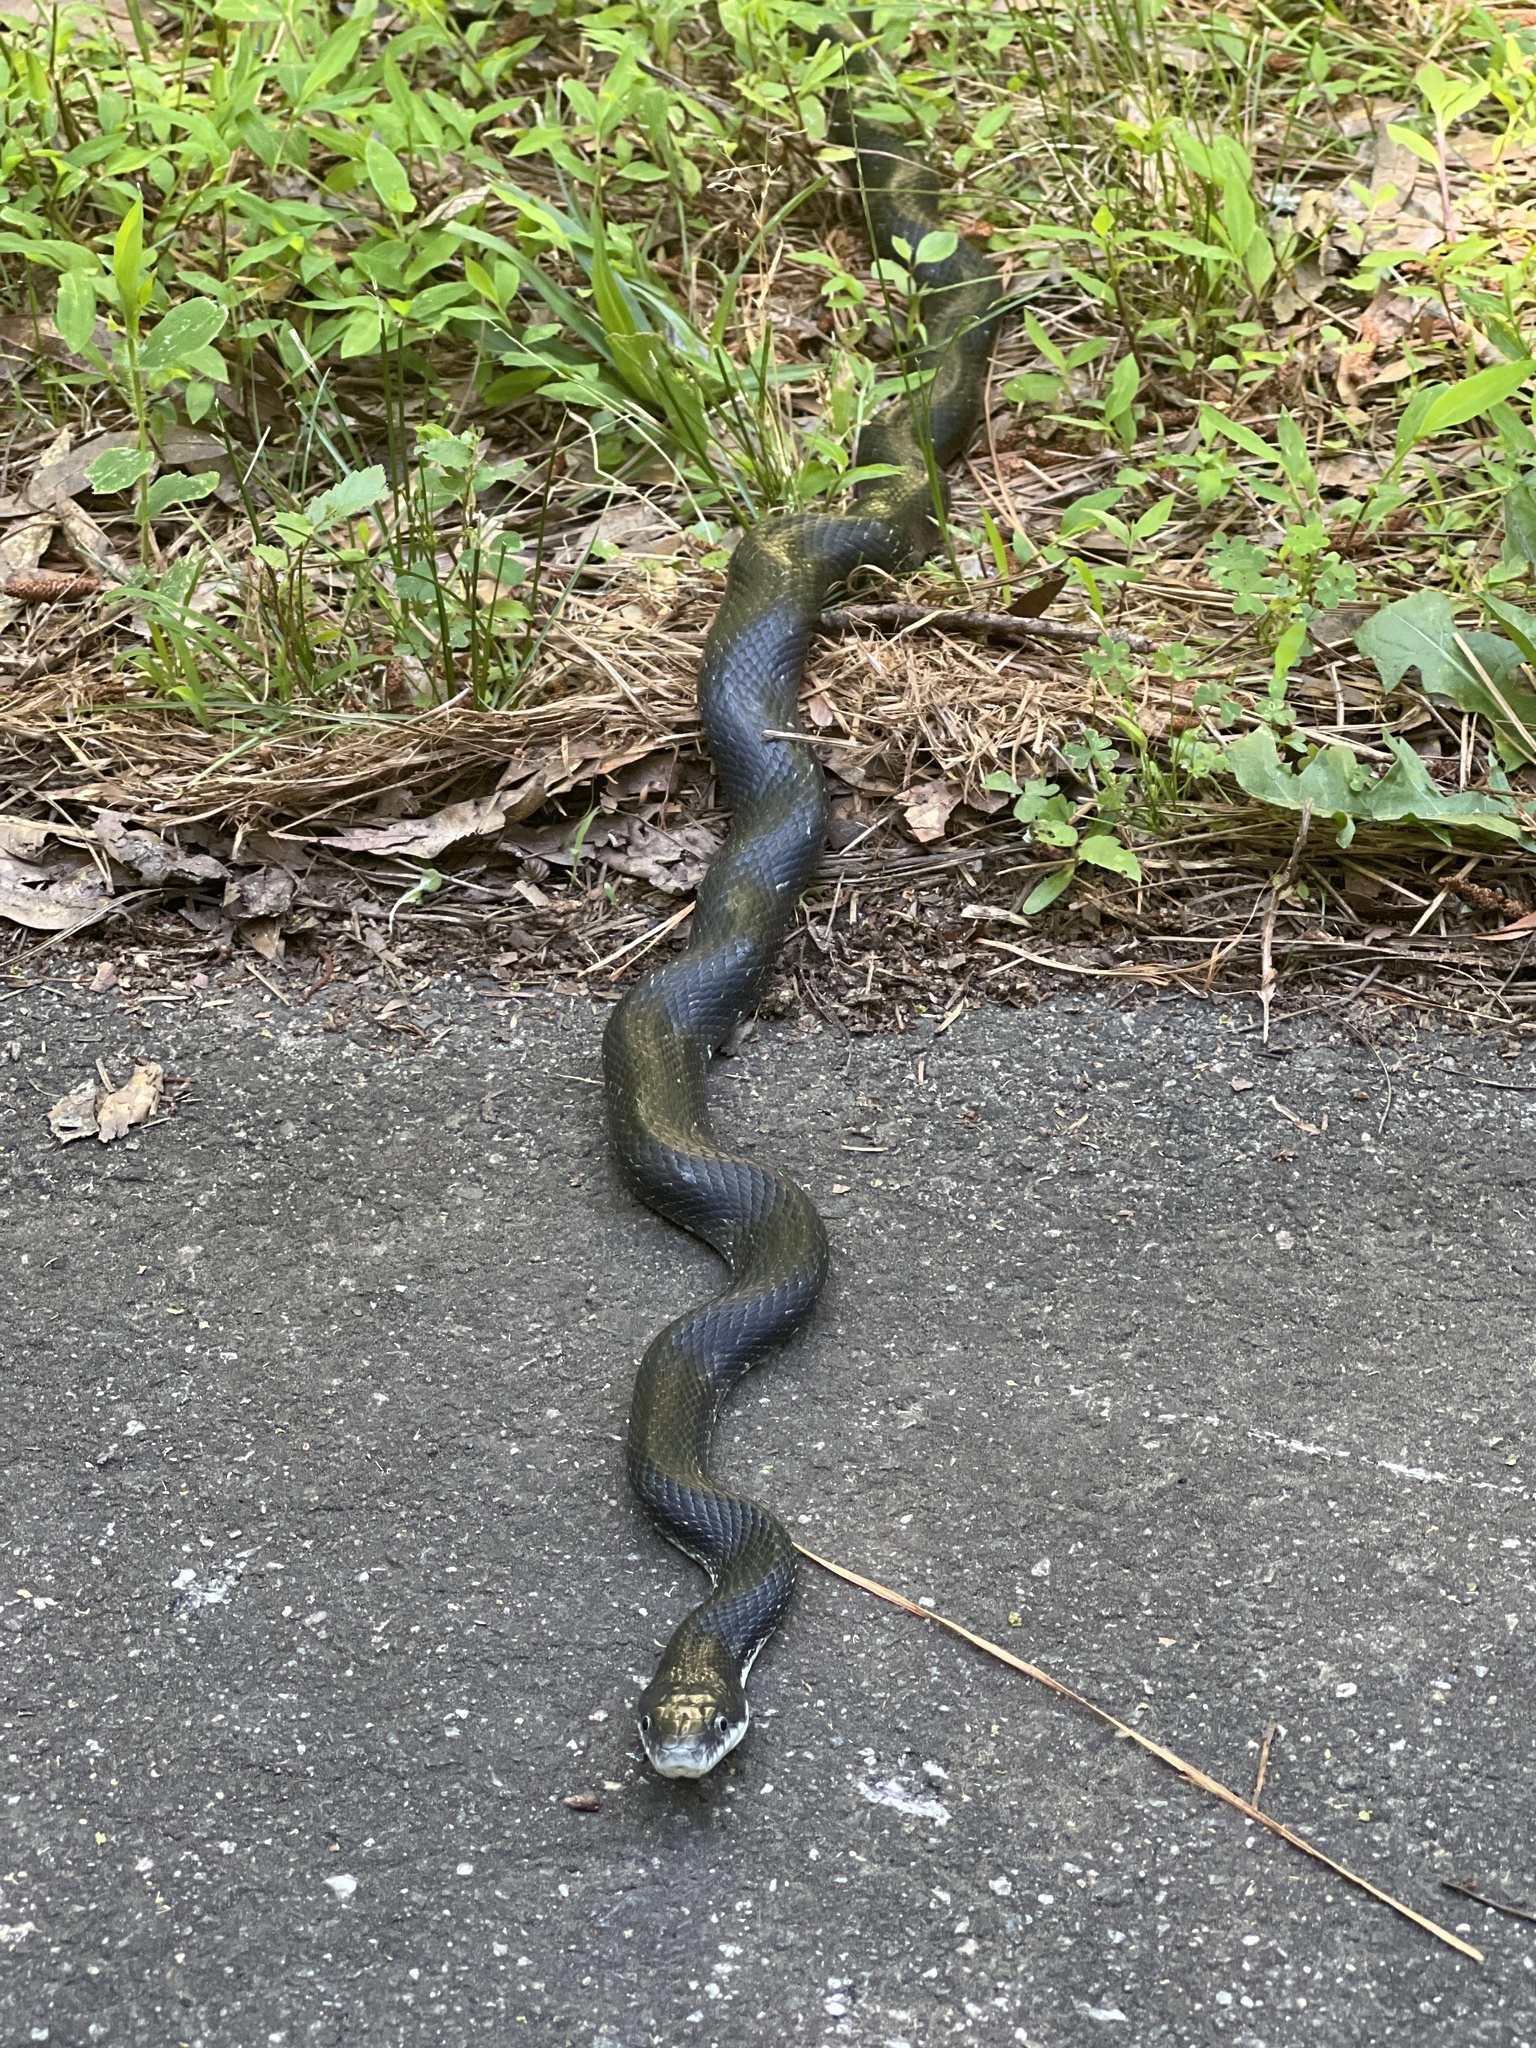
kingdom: Animalia
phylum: Chordata
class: Squamata
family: Colubridae
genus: Pantherophis
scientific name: Pantherophis alleghaniensis
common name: Eastern rat snake
